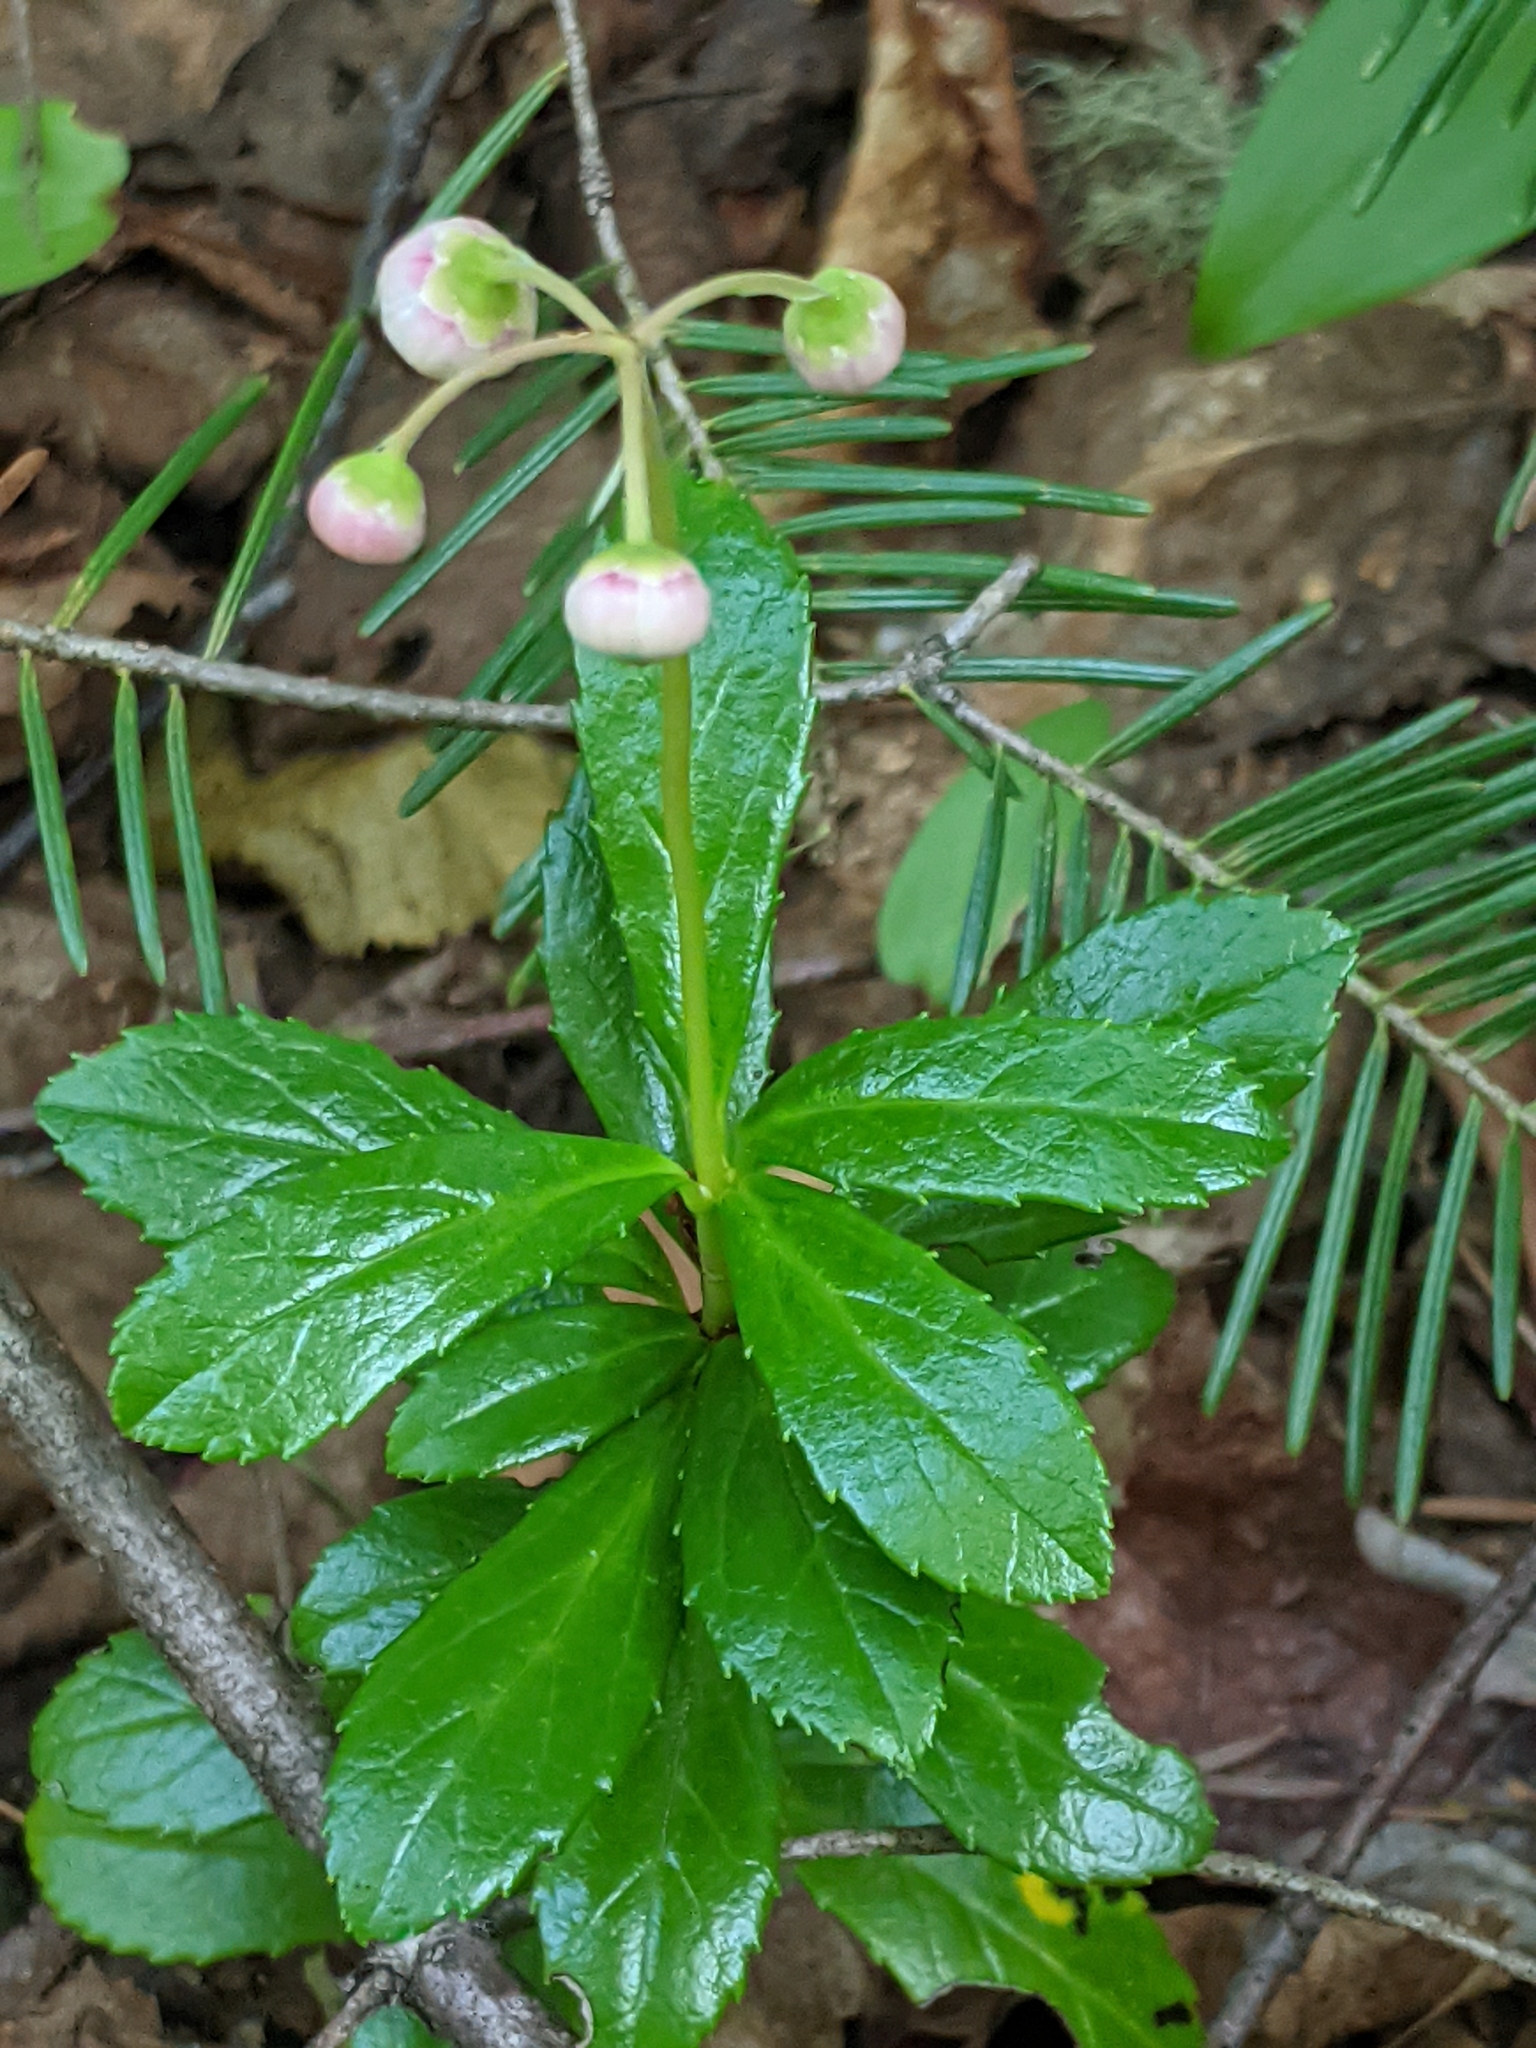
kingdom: Plantae
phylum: Tracheophyta
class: Magnoliopsida
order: Ericales
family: Ericaceae
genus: Chimaphila
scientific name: Chimaphila umbellata
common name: Pipsissewa
